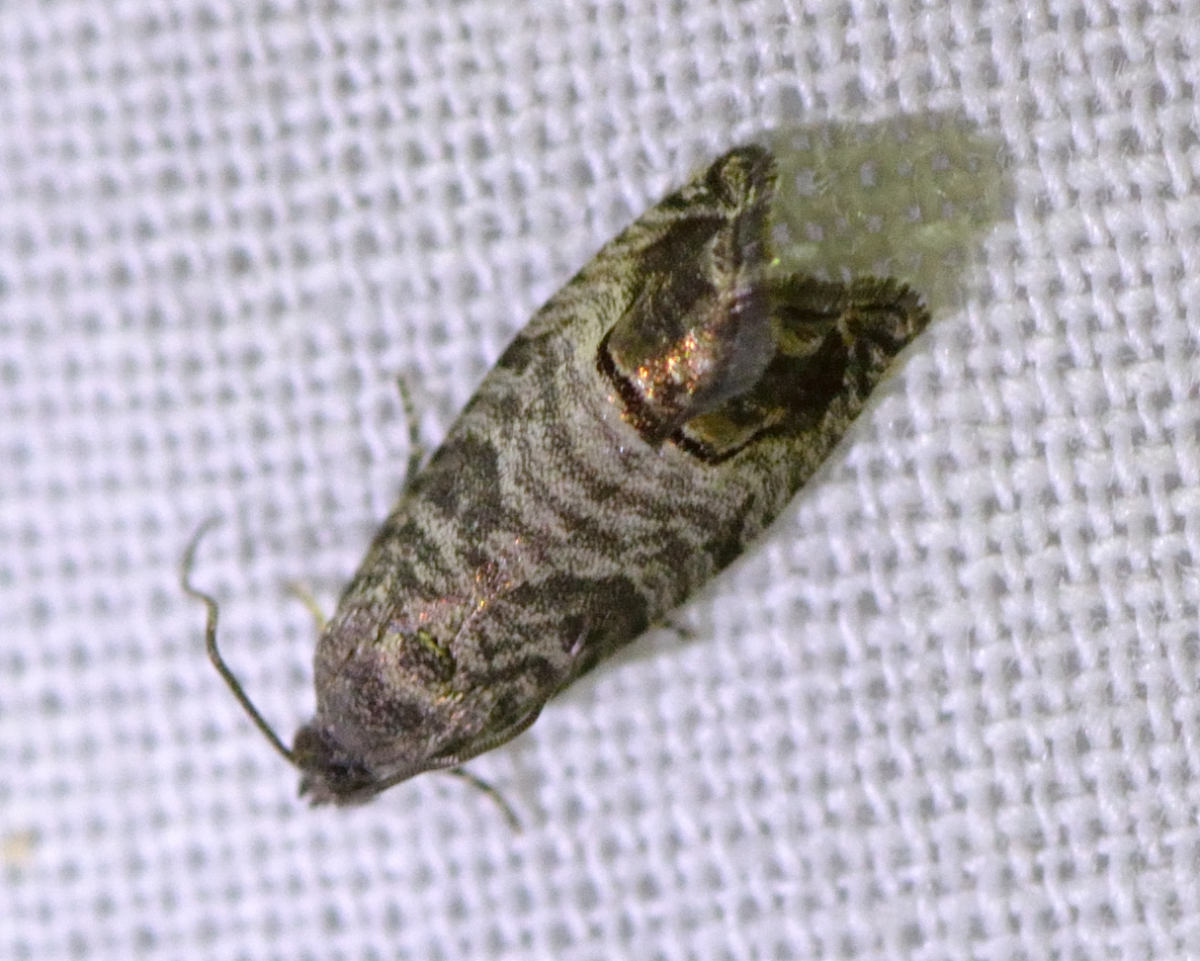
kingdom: Animalia
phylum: Arthropoda
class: Insecta
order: Lepidoptera
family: Tortricidae
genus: Cydia
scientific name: Cydia pomonella
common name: Codling moth
